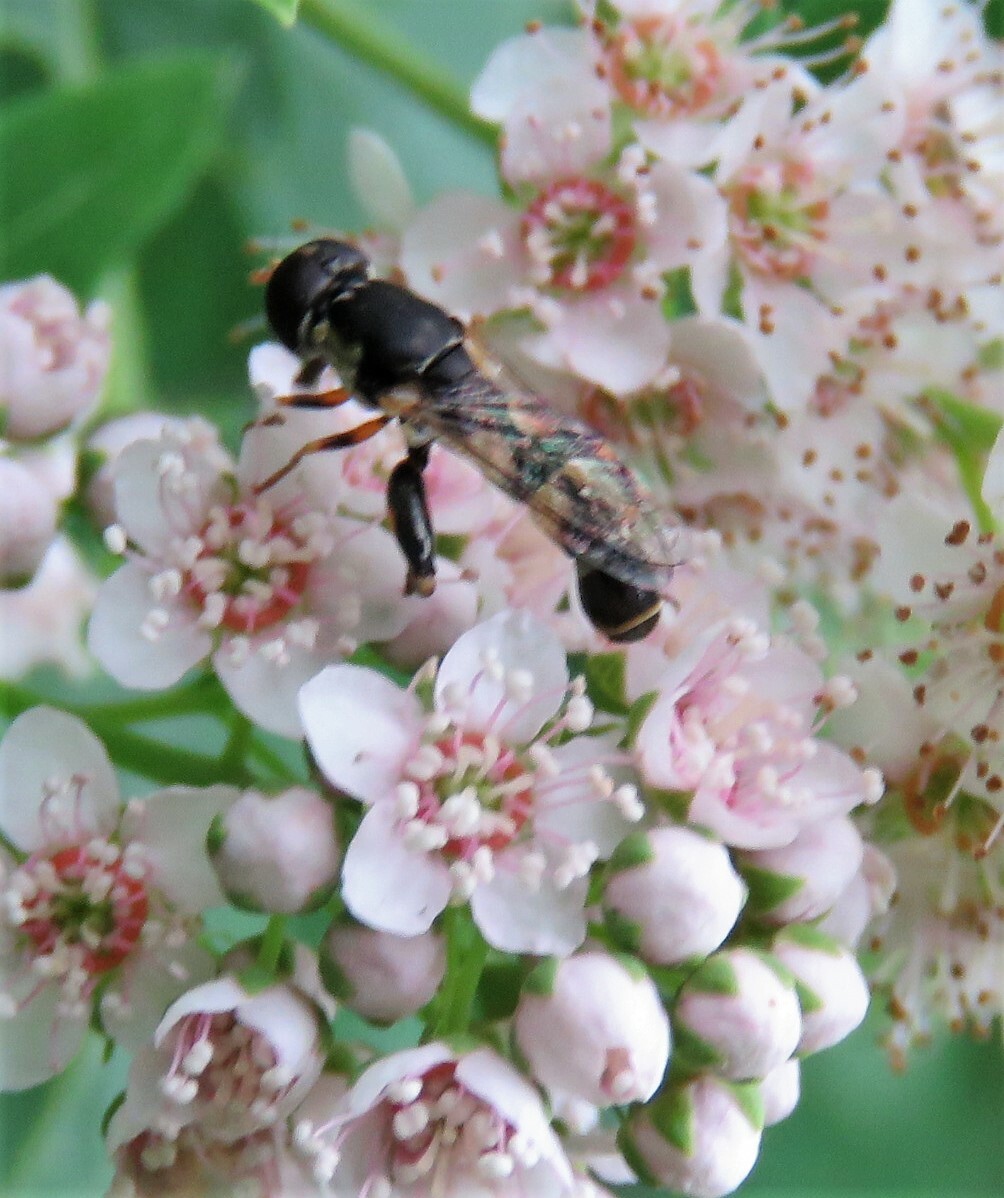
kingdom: Animalia
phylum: Arthropoda
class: Insecta
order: Diptera
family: Syrphidae
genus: Syritta
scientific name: Syritta pipiens
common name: Hover fly
